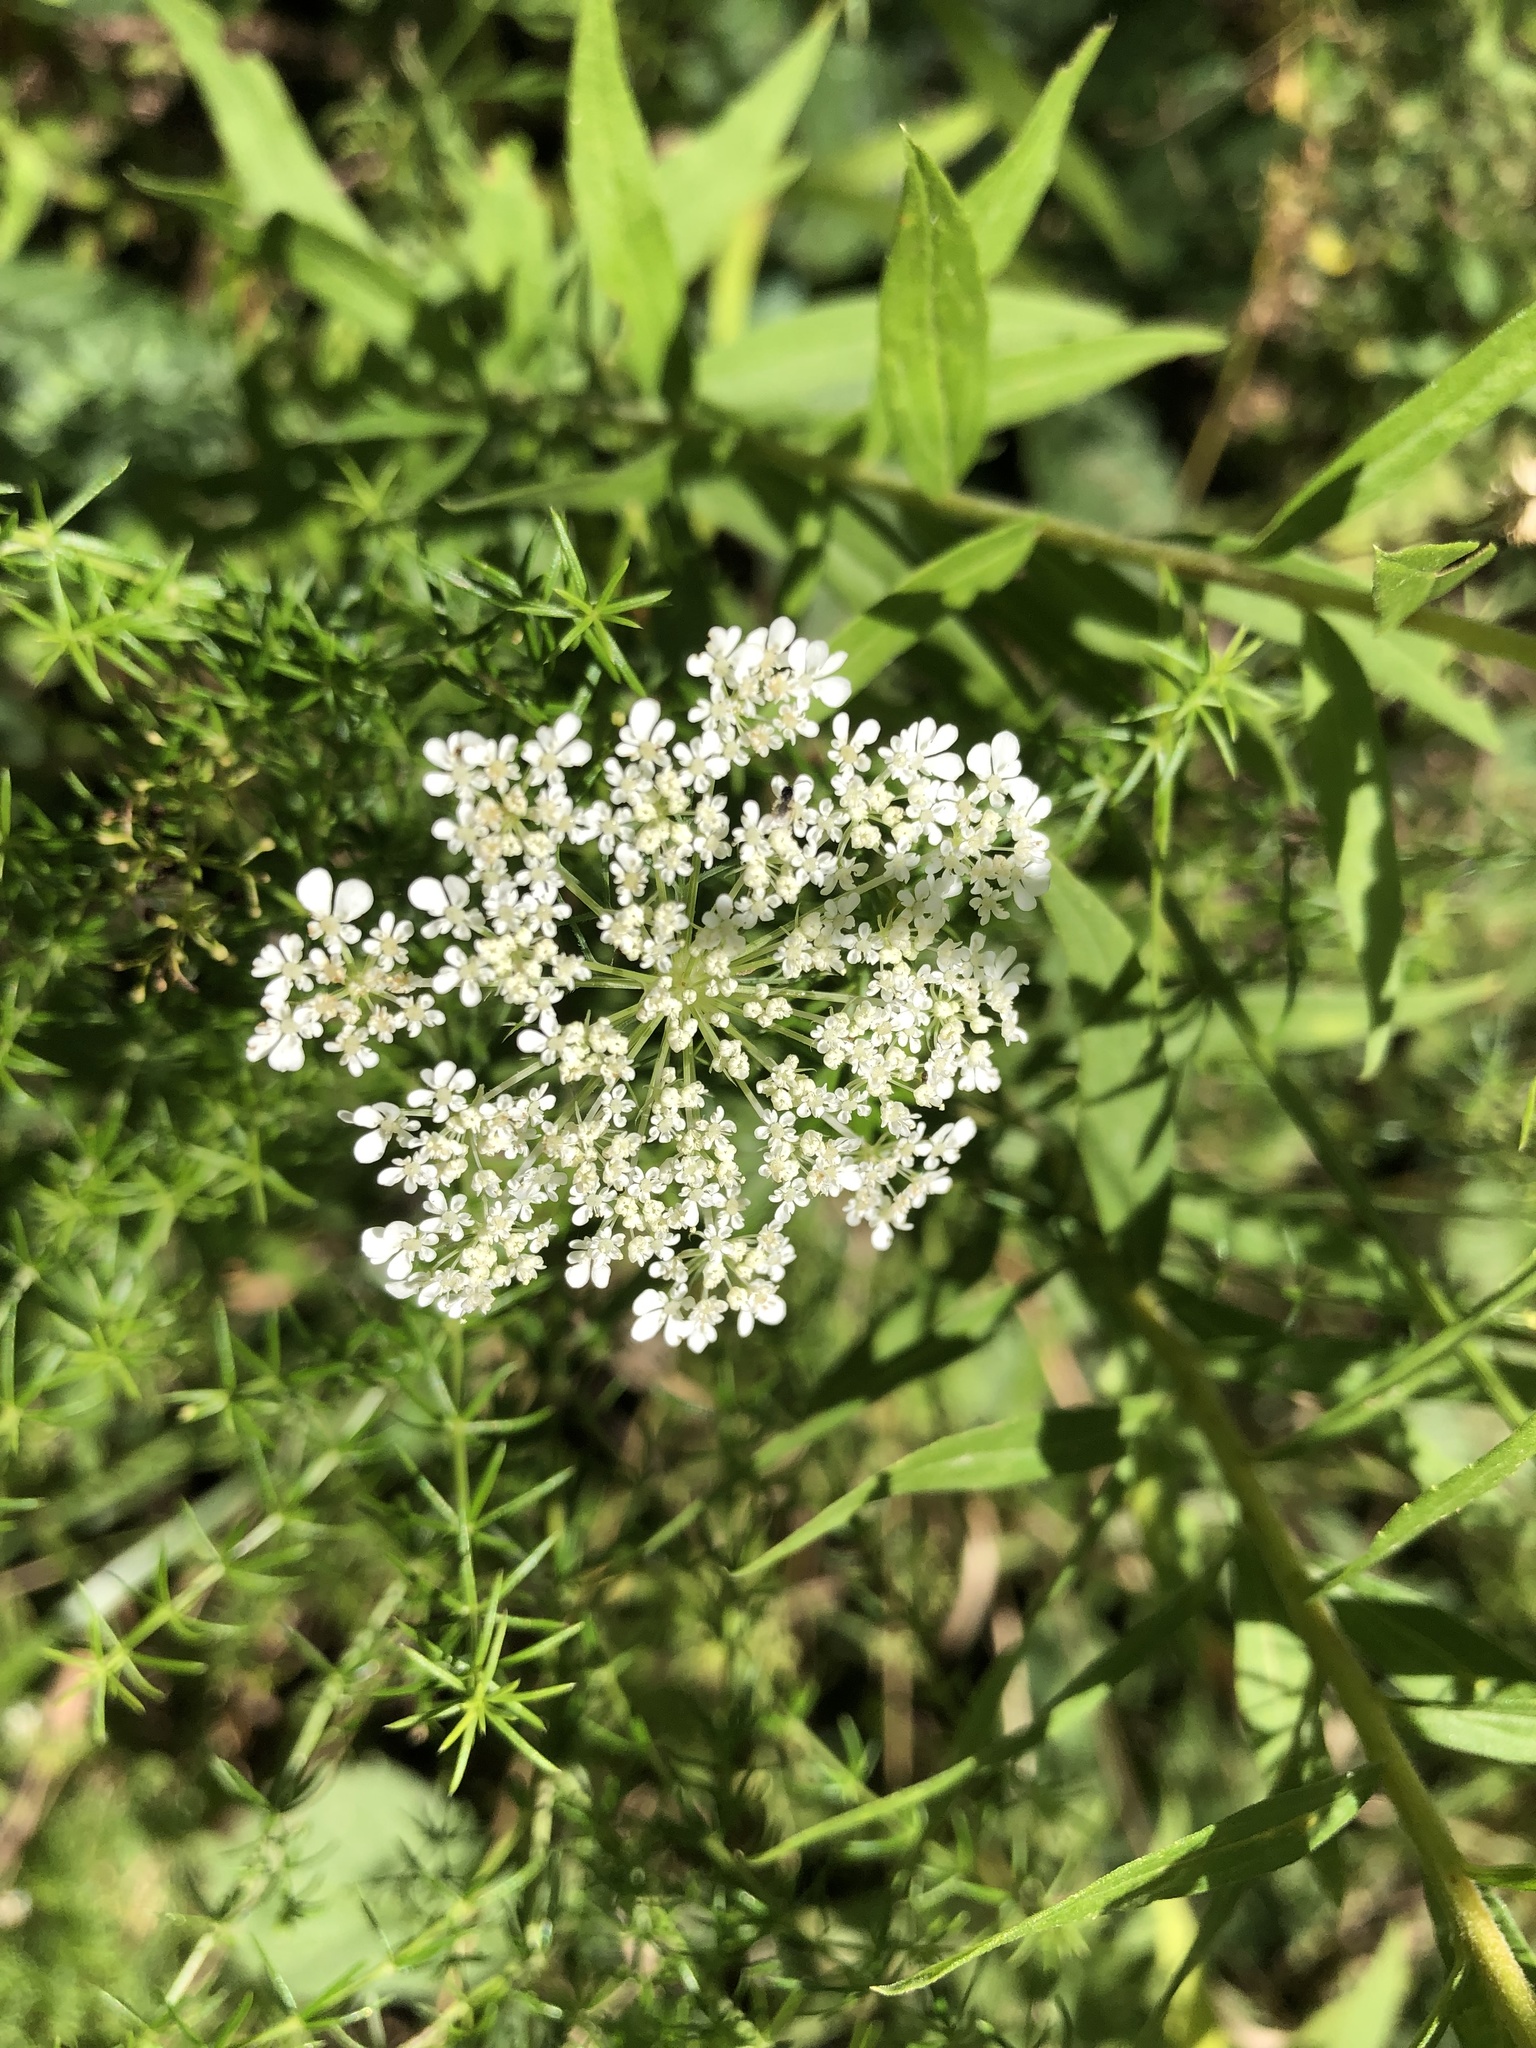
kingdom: Plantae
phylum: Tracheophyta
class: Magnoliopsida
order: Apiales
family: Apiaceae
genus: Daucus
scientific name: Daucus carota
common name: Wild carrot
